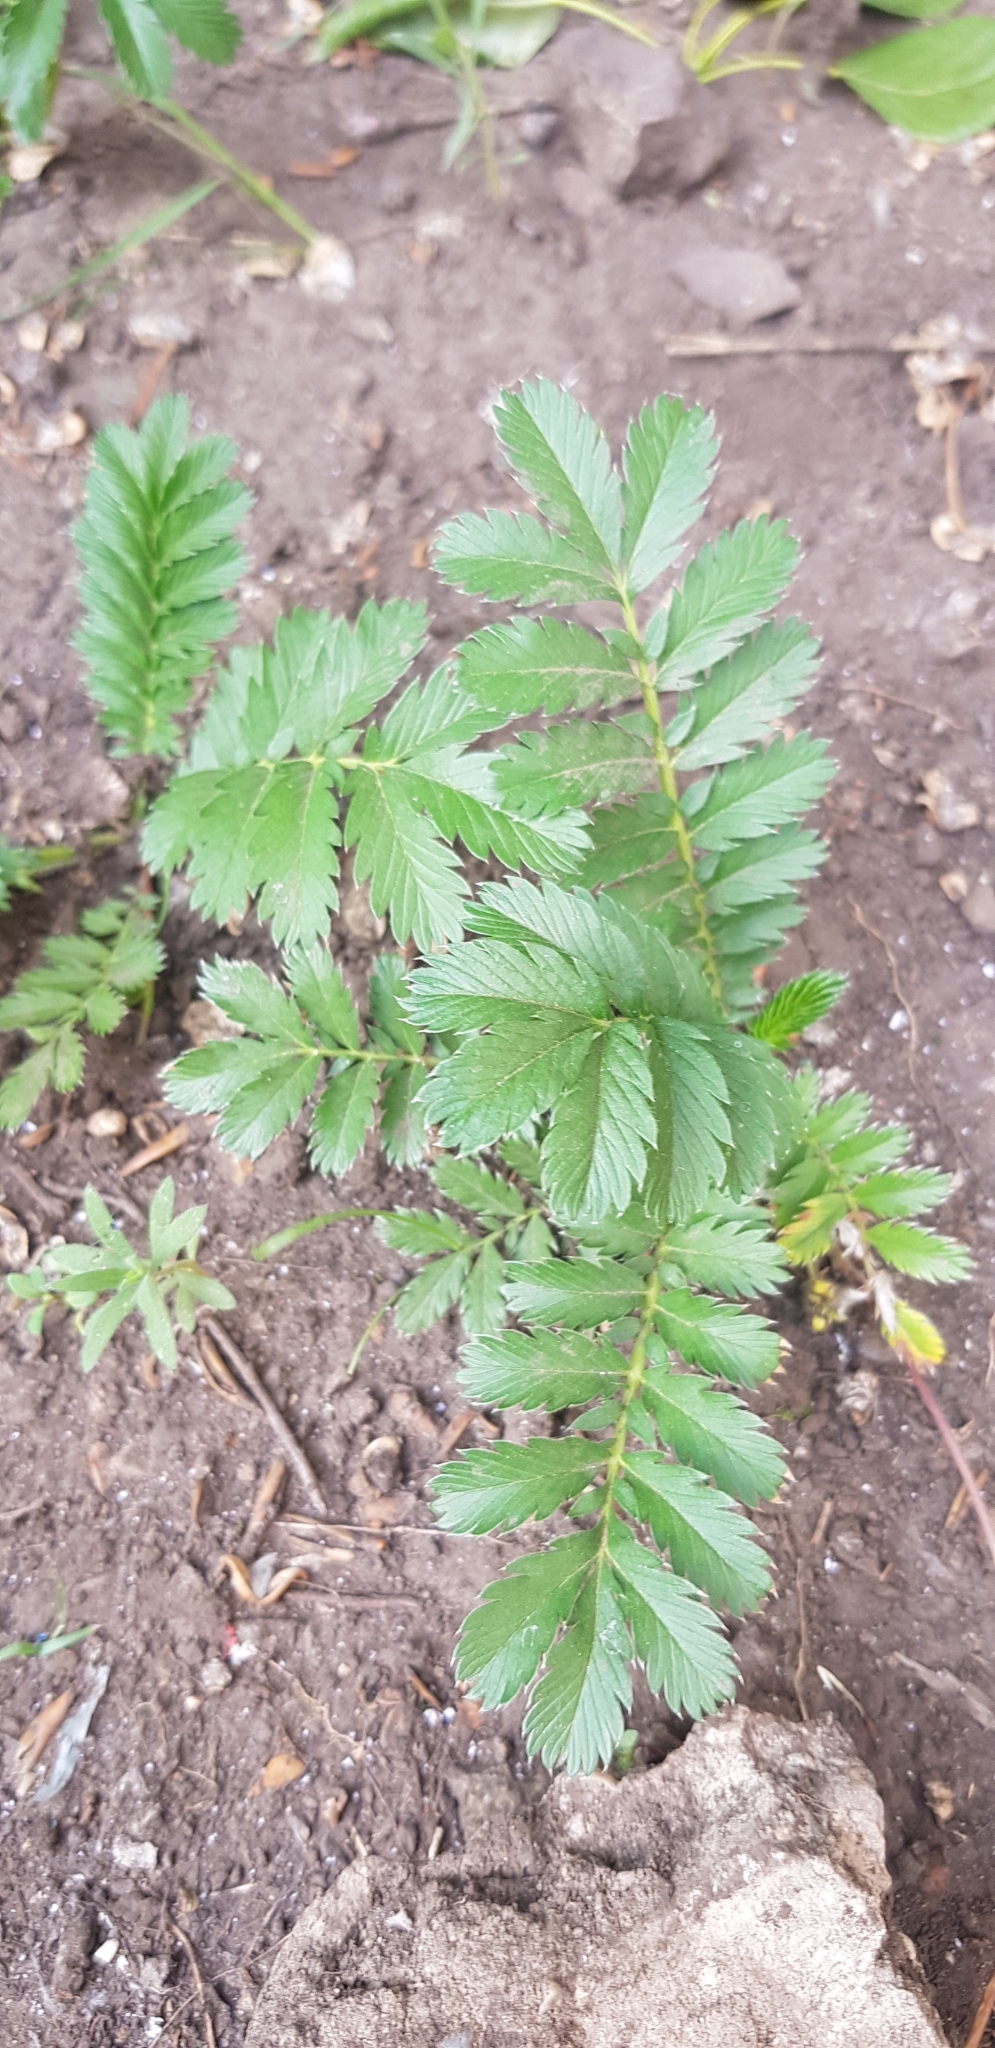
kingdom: Plantae
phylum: Tracheophyta
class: Magnoliopsida
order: Rosales
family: Rosaceae
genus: Argentina
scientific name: Argentina anserina
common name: Common silverweed
